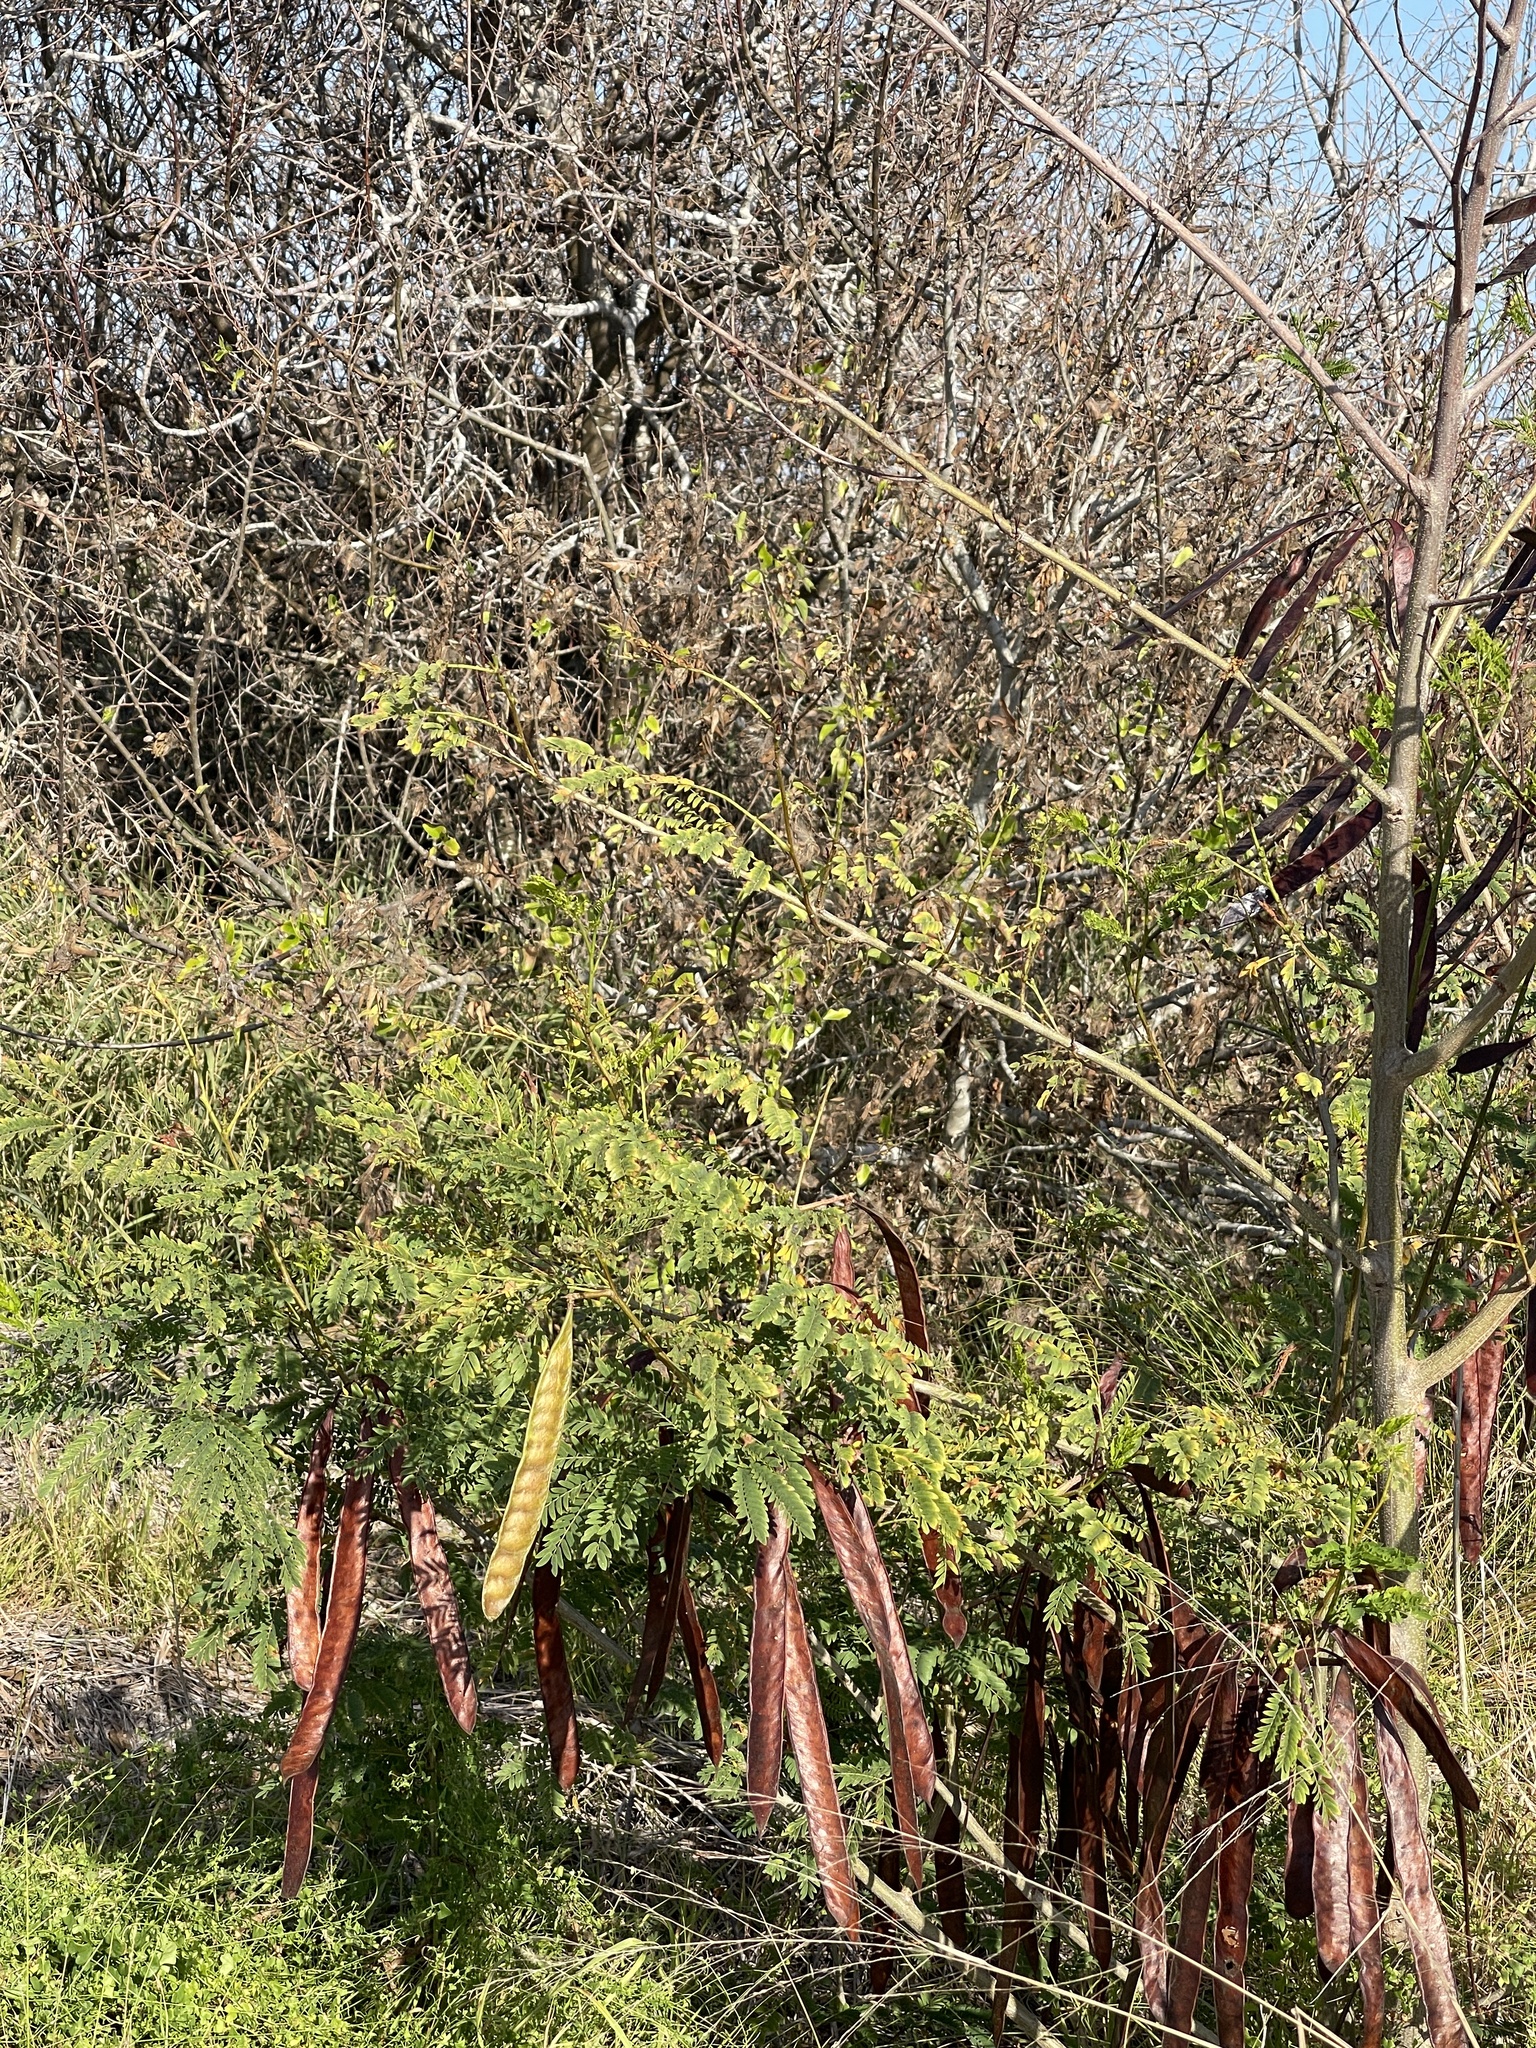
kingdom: Plantae
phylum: Tracheophyta
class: Magnoliopsida
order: Fabales
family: Fabaceae
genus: Leucaena
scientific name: Leucaena leucocephala
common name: White leadtree
